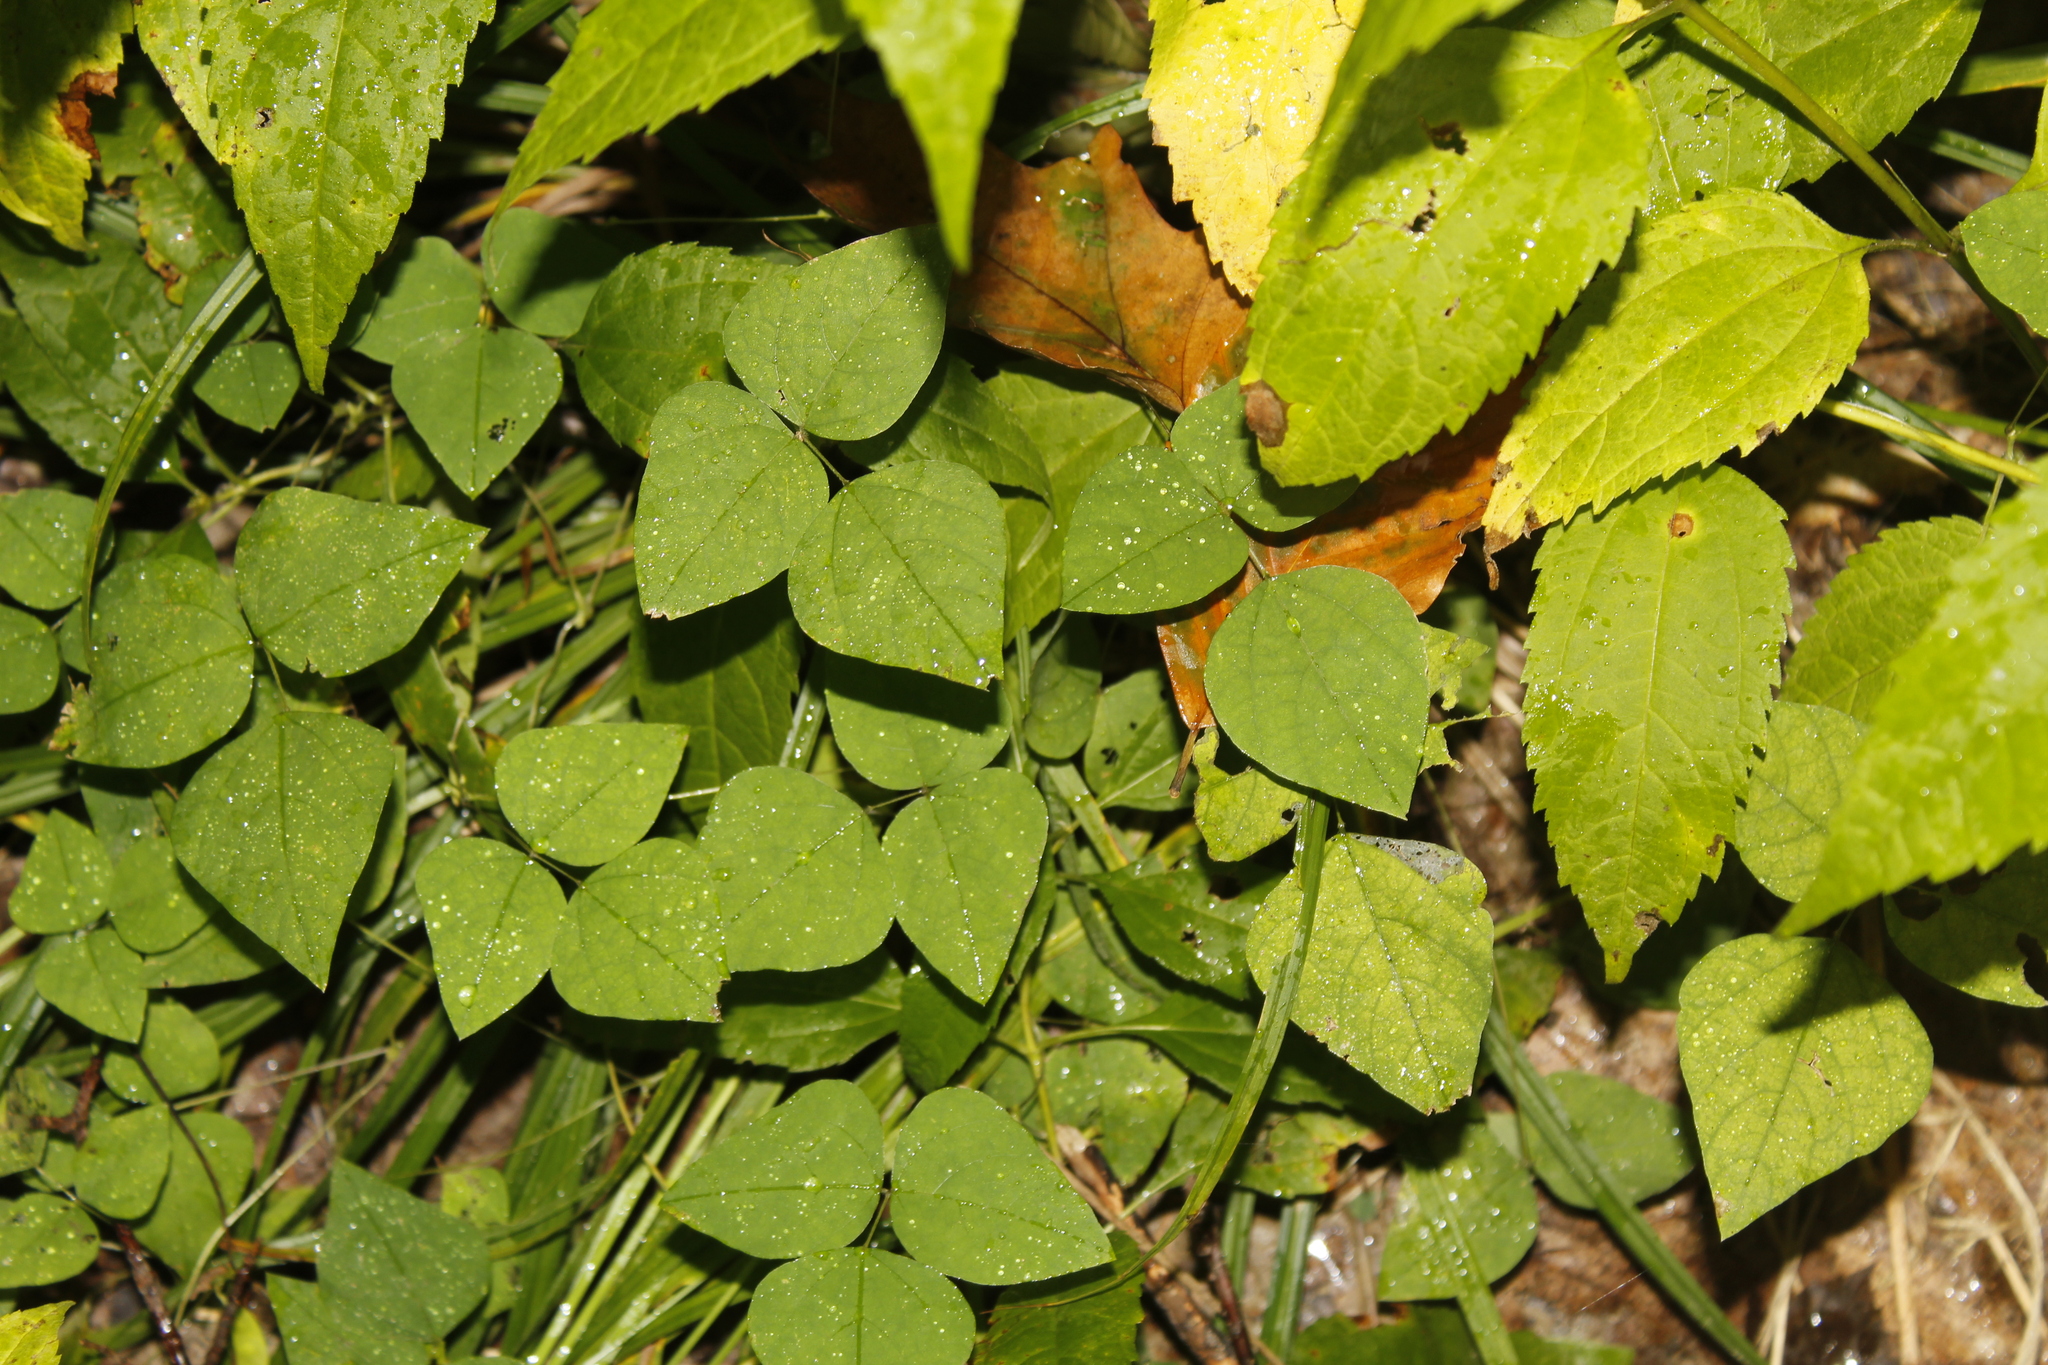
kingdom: Plantae
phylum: Tracheophyta
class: Magnoliopsida
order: Fabales
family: Fabaceae
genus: Amphicarpaea
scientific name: Amphicarpaea bracteata
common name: American hog peanut
